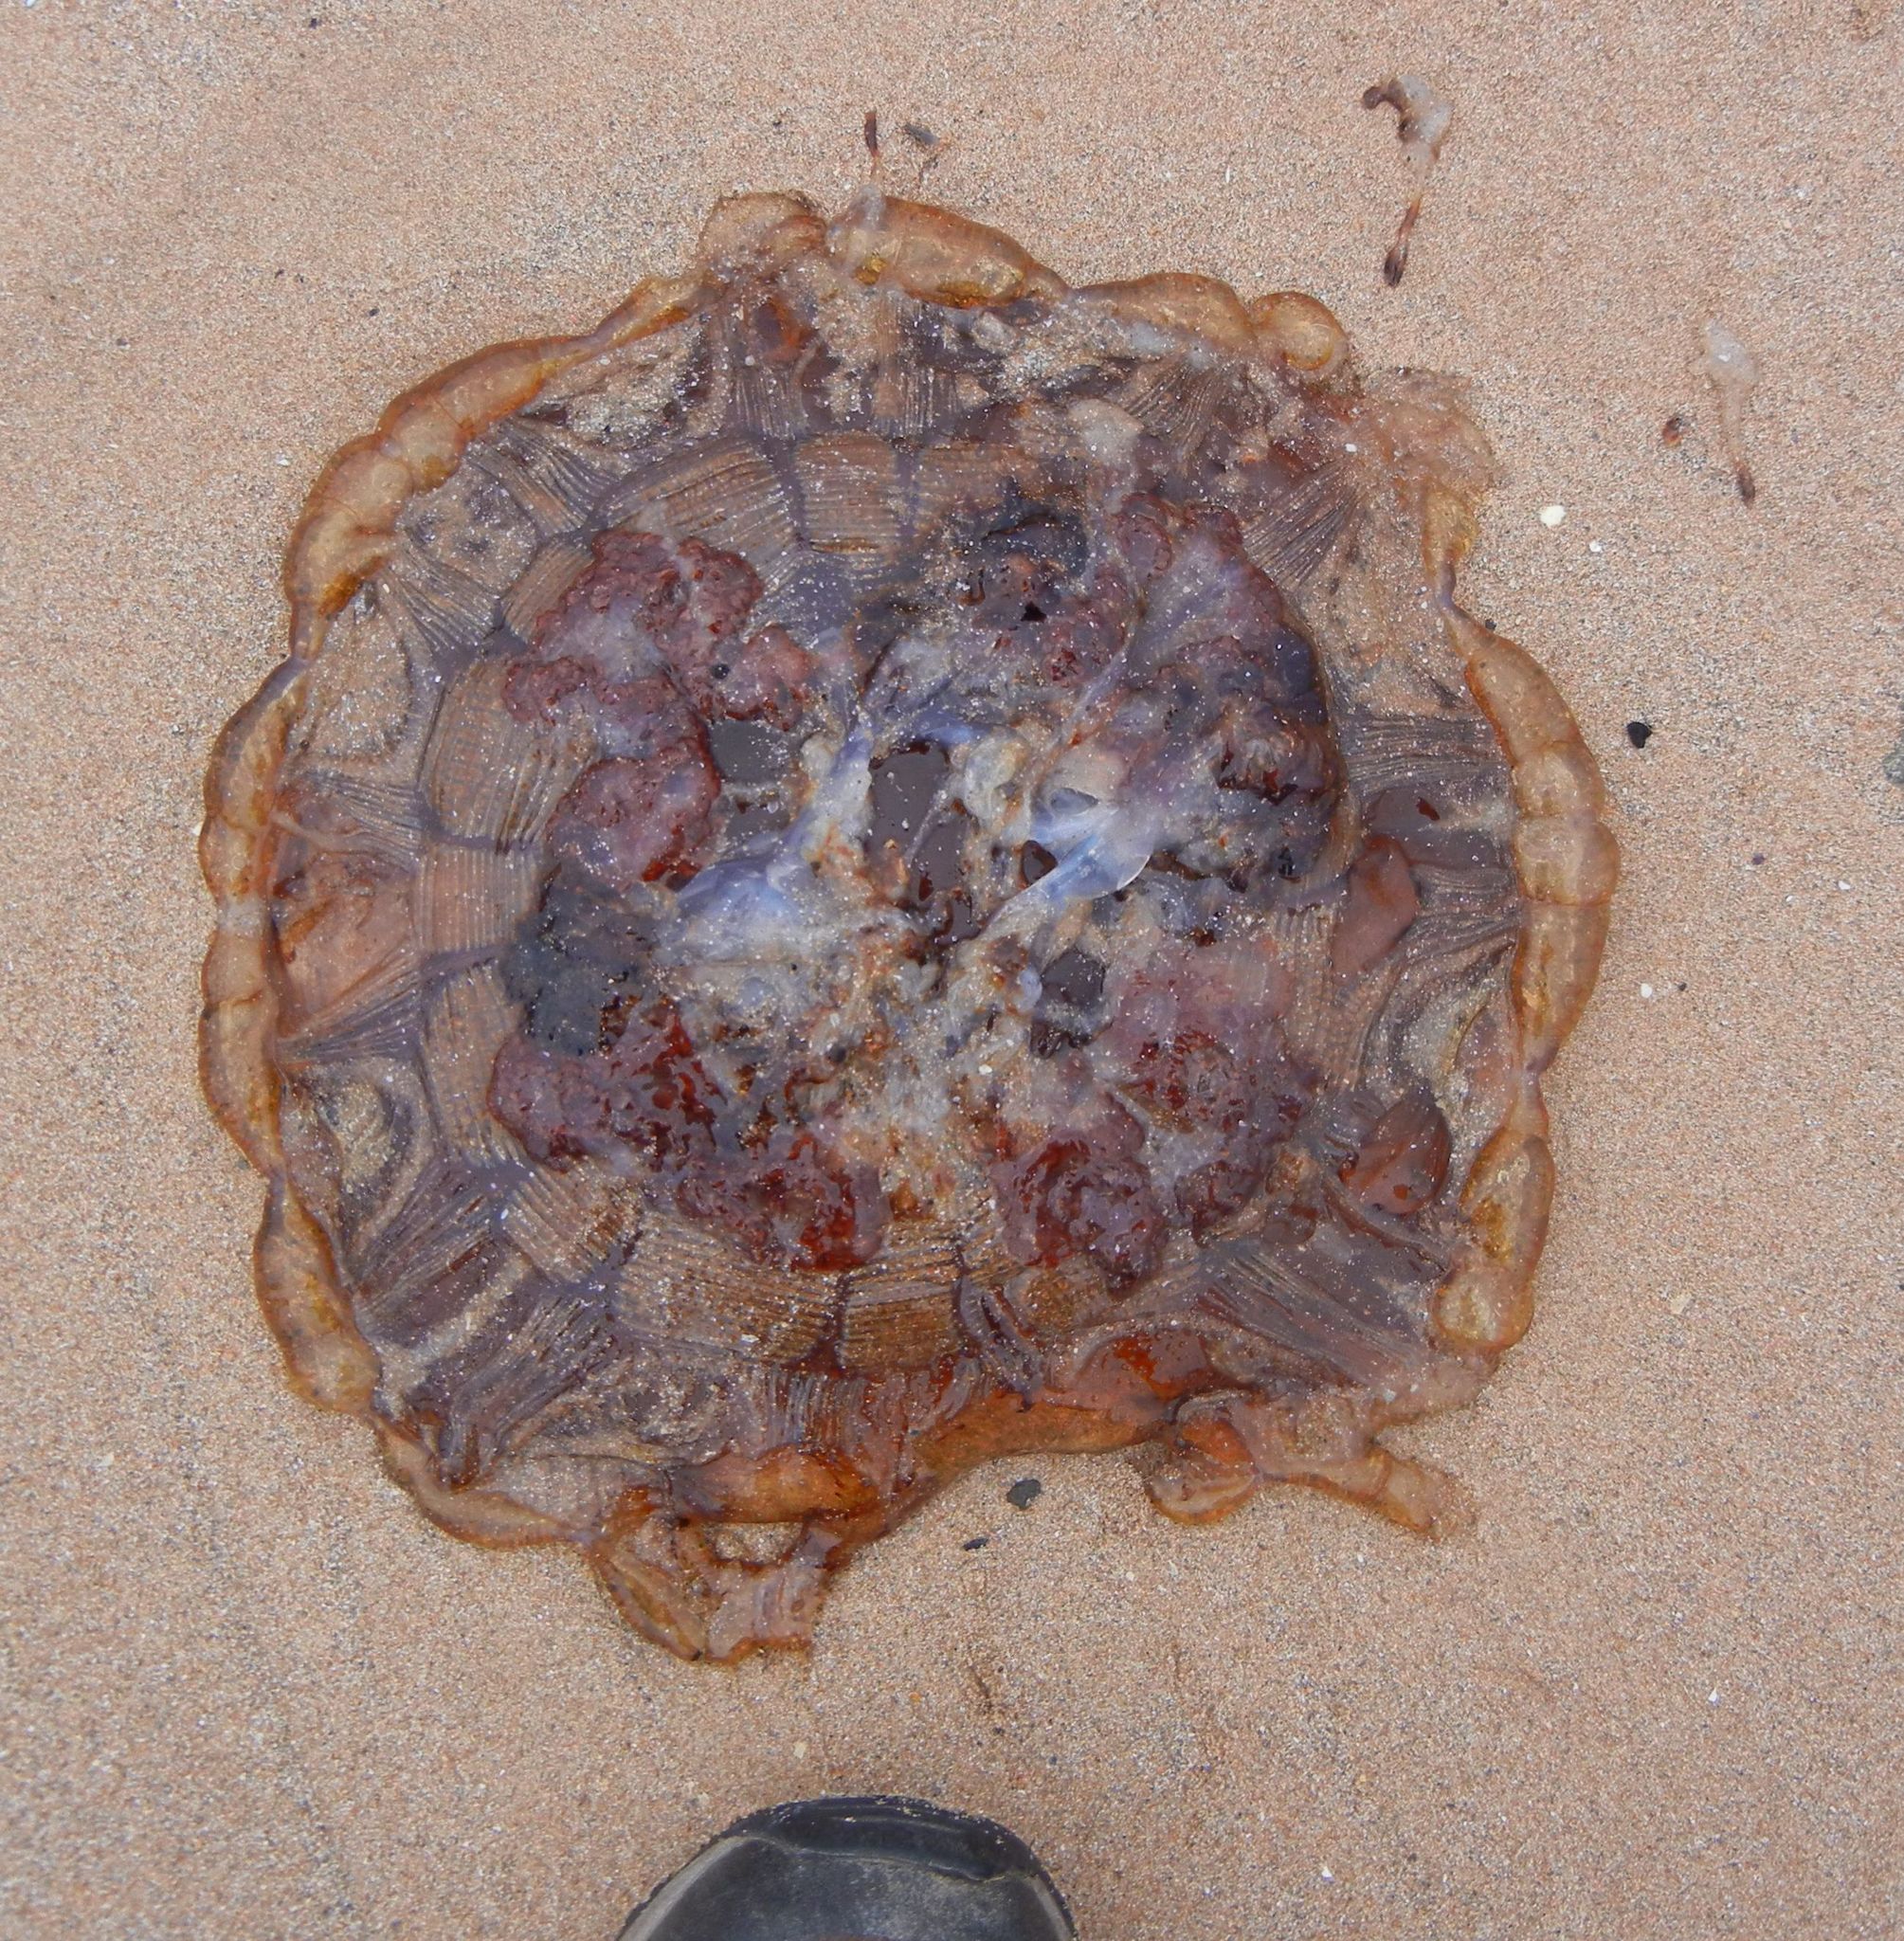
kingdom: Animalia
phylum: Cnidaria
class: Scyphozoa
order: Semaeostomeae
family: Cyaneidae
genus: Cyanea
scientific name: Cyanea capillata
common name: Lion's mane jellyfish
